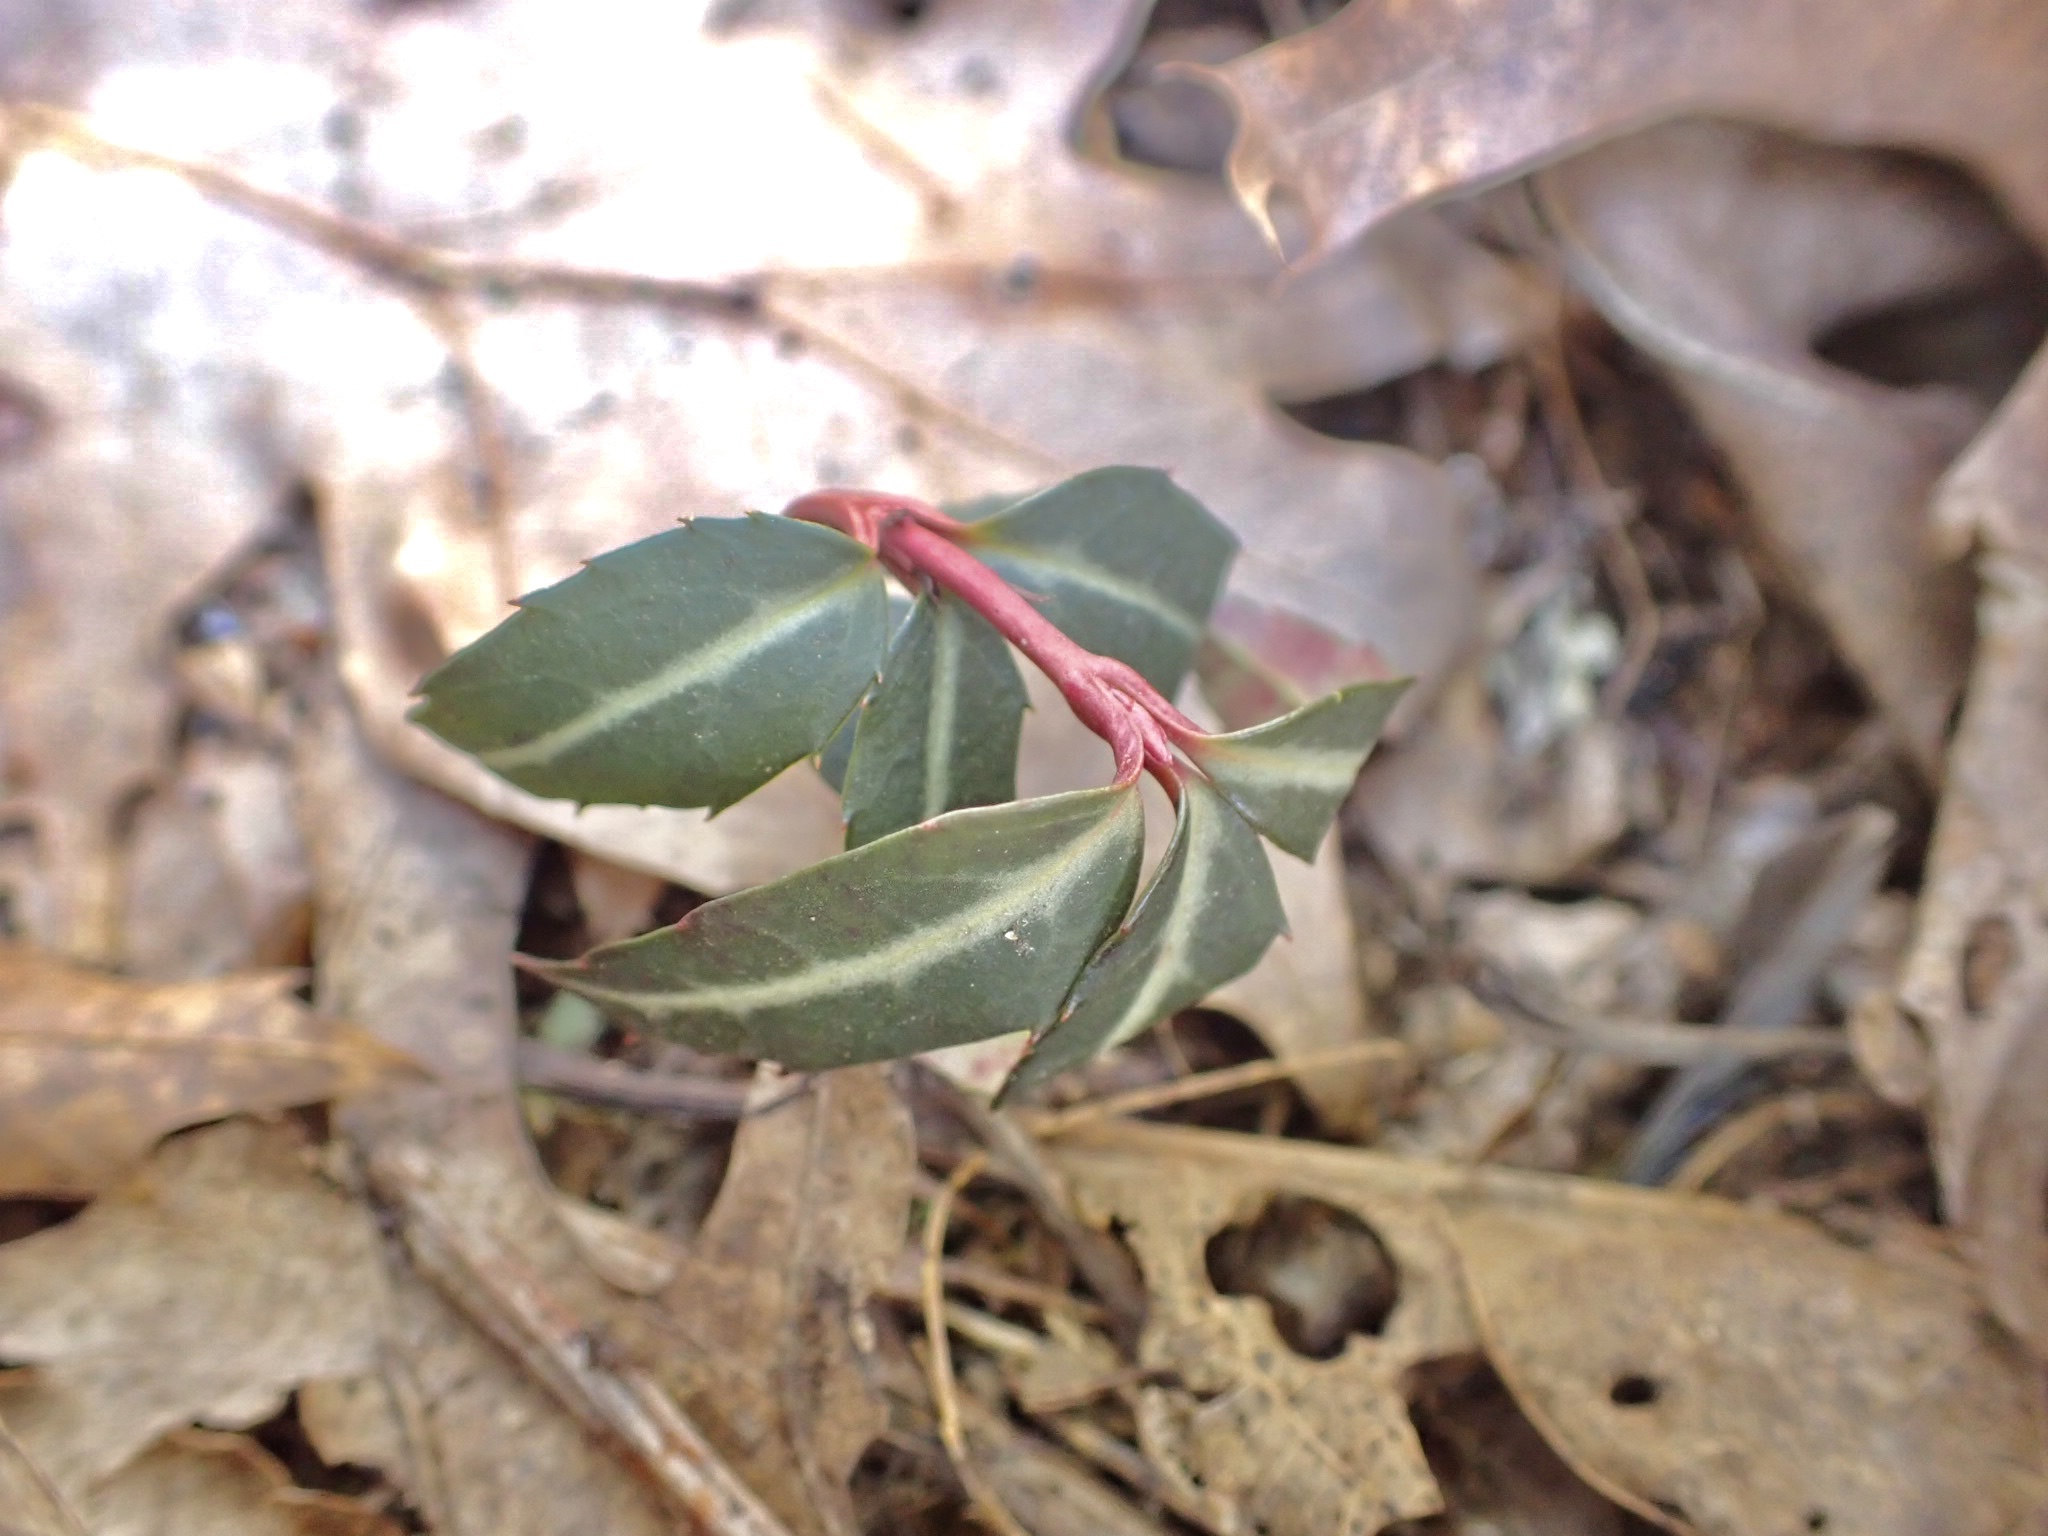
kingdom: Plantae
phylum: Tracheophyta
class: Magnoliopsida
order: Ericales
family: Ericaceae
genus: Chimaphila
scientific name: Chimaphila maculata
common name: Spotted pipsissewa
